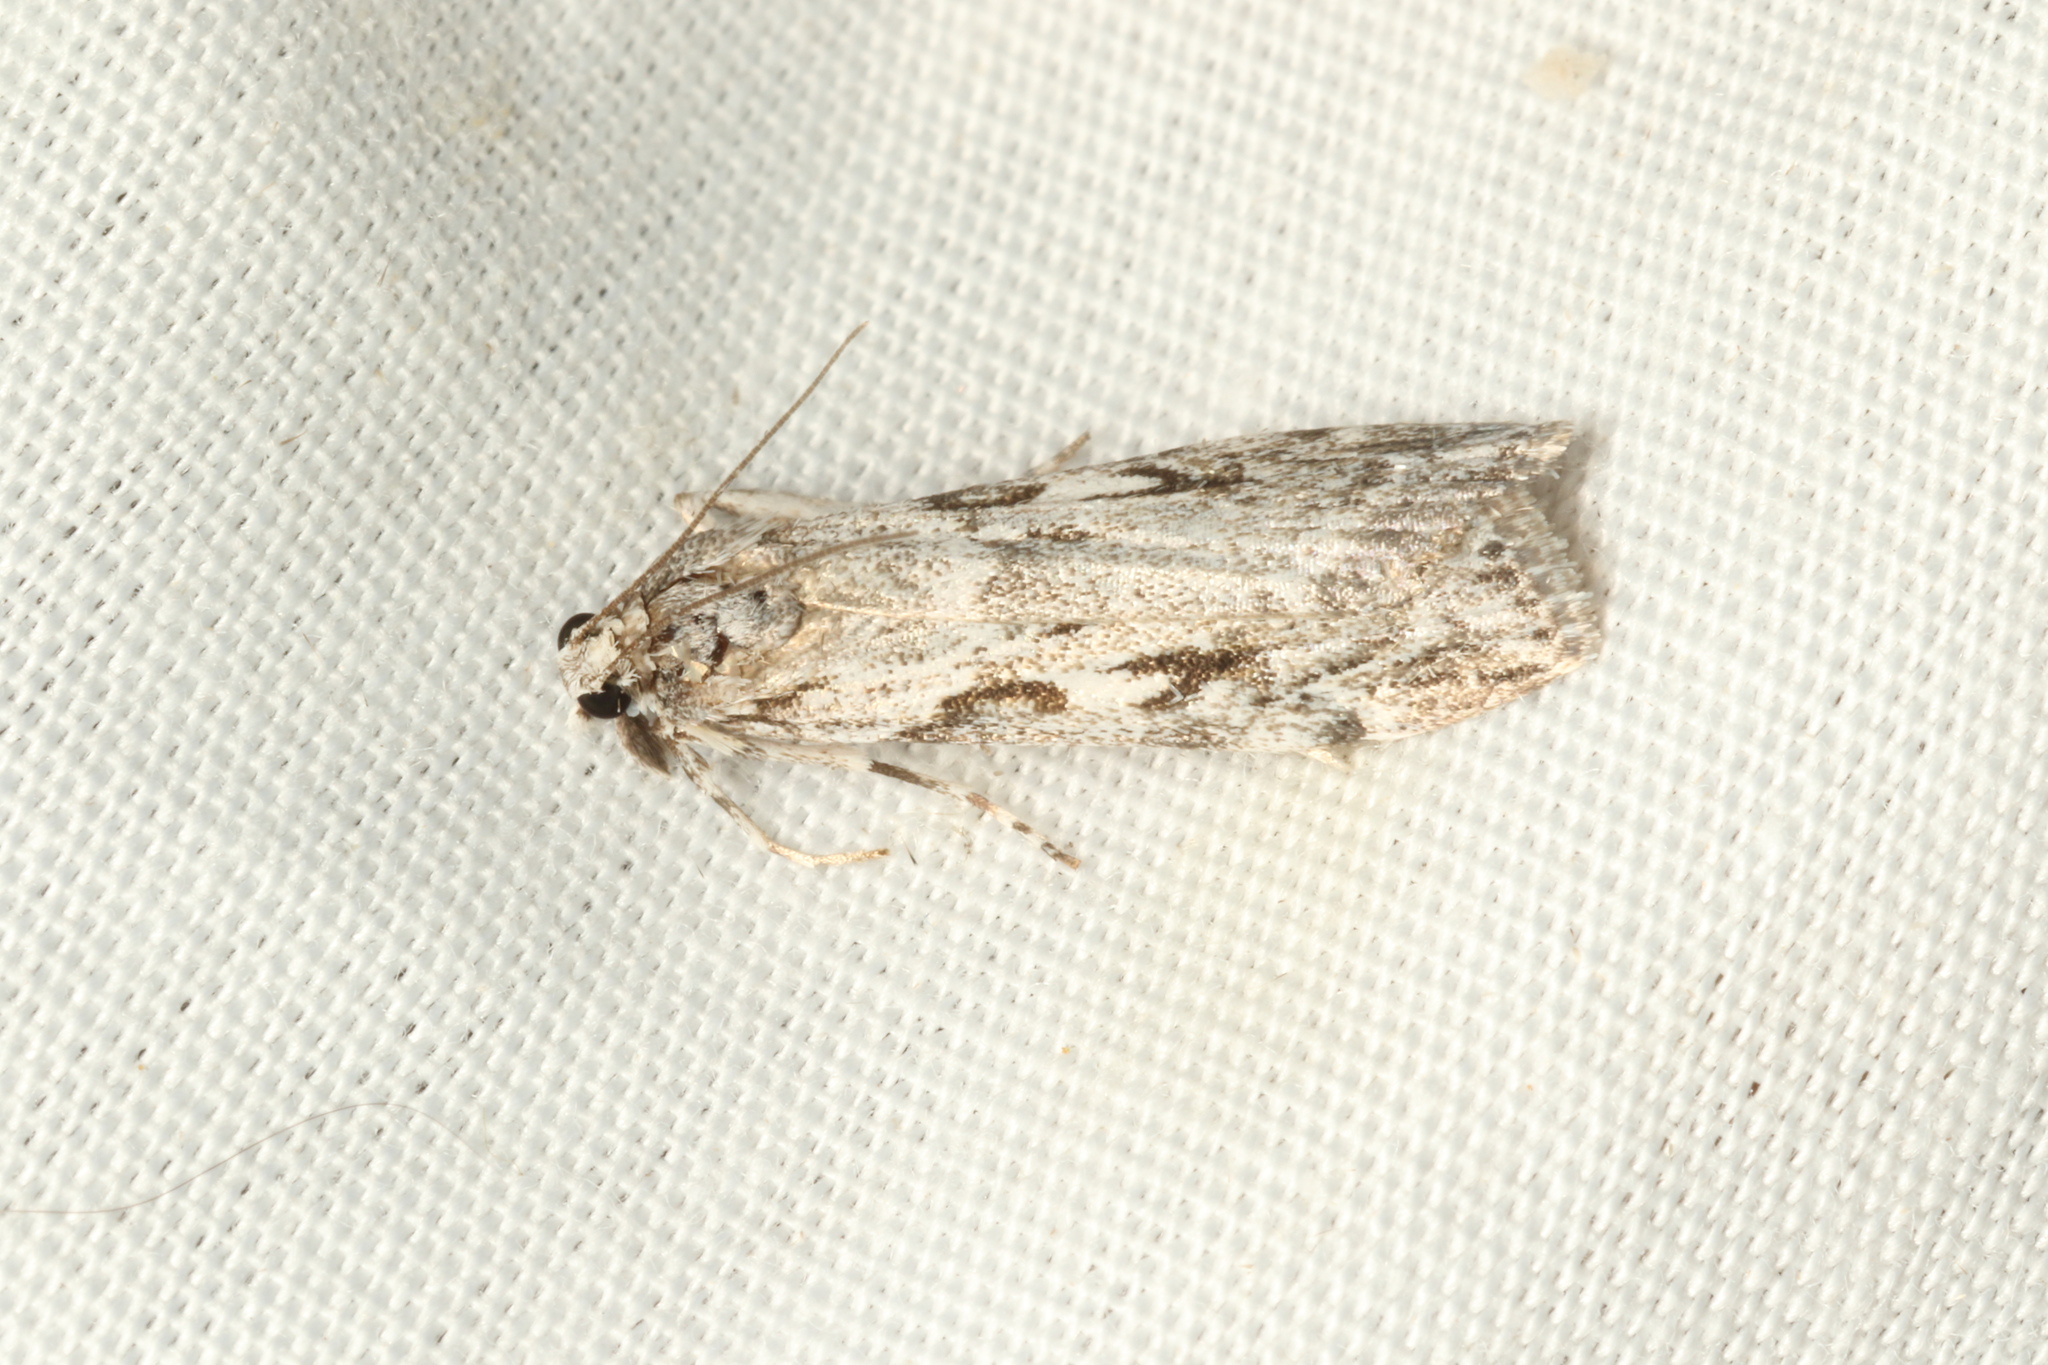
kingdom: Animalia
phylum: Arthropoda
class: Insecta
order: Lepidoptera
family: Crambidae
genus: Scoparia
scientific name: Scoparia halopis
